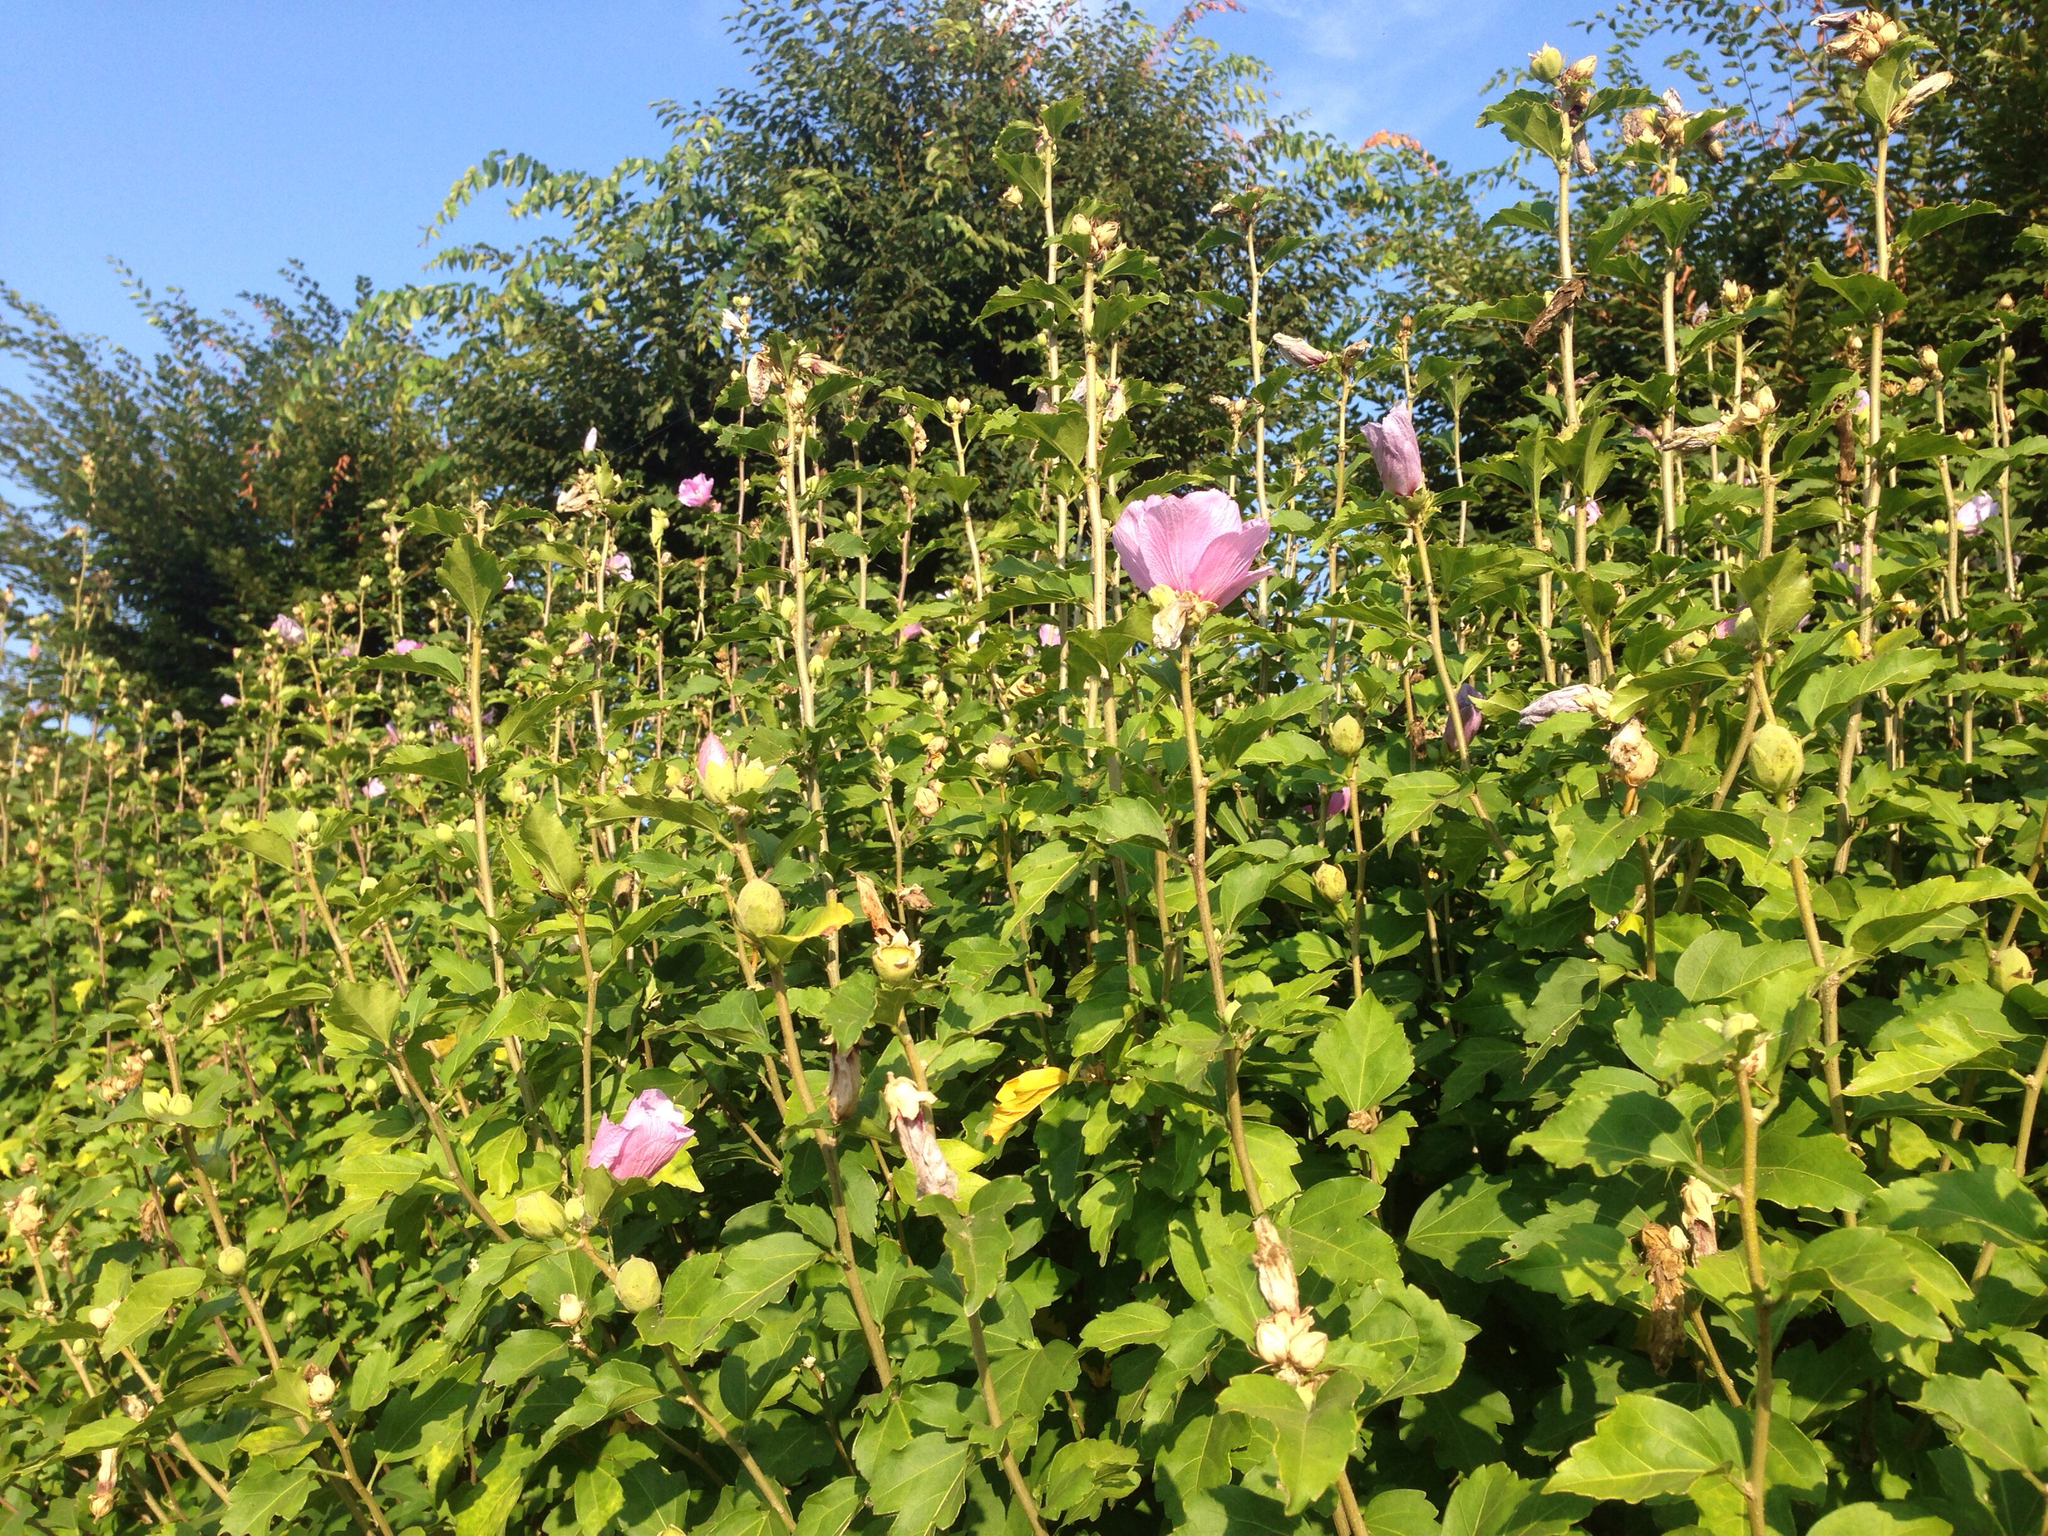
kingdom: Plantae
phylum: Tracheophyta
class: Magnoliopsida
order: Malvales
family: Malvaceae
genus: Hibiscus
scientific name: Hibiscus syriacus
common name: Syrian ketmia
